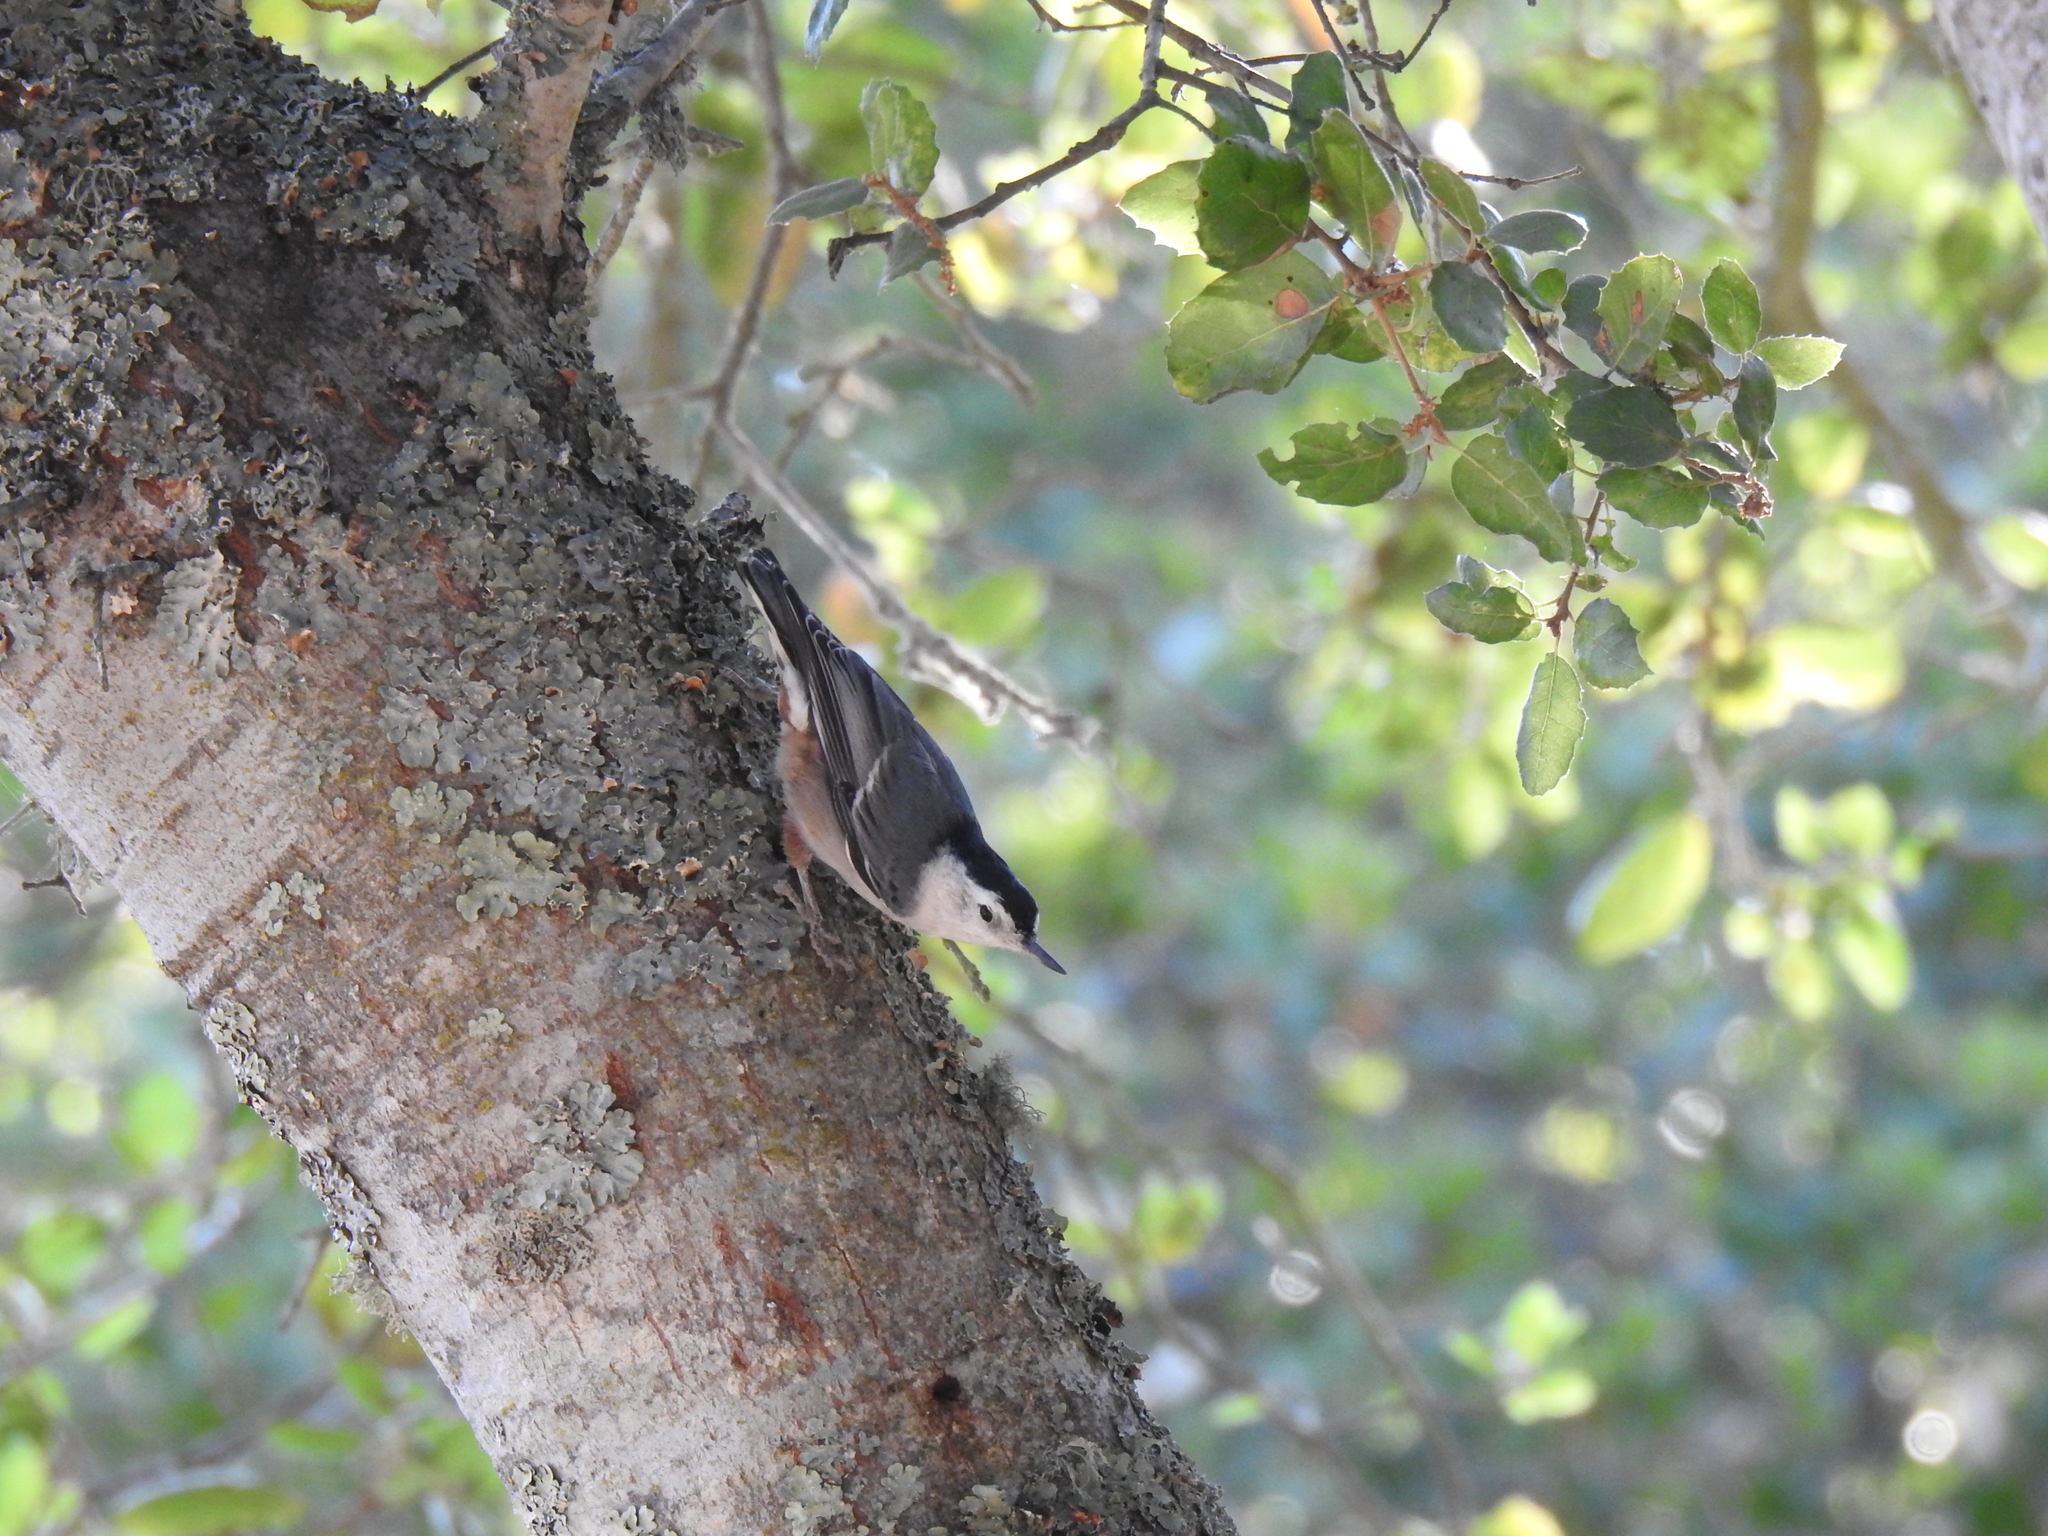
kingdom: Animalia
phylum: Chordata
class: Aves
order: Passeriformes
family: Sittidae
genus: Sitta
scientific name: Sitta carolinensis
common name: White-breasted nuthatch
